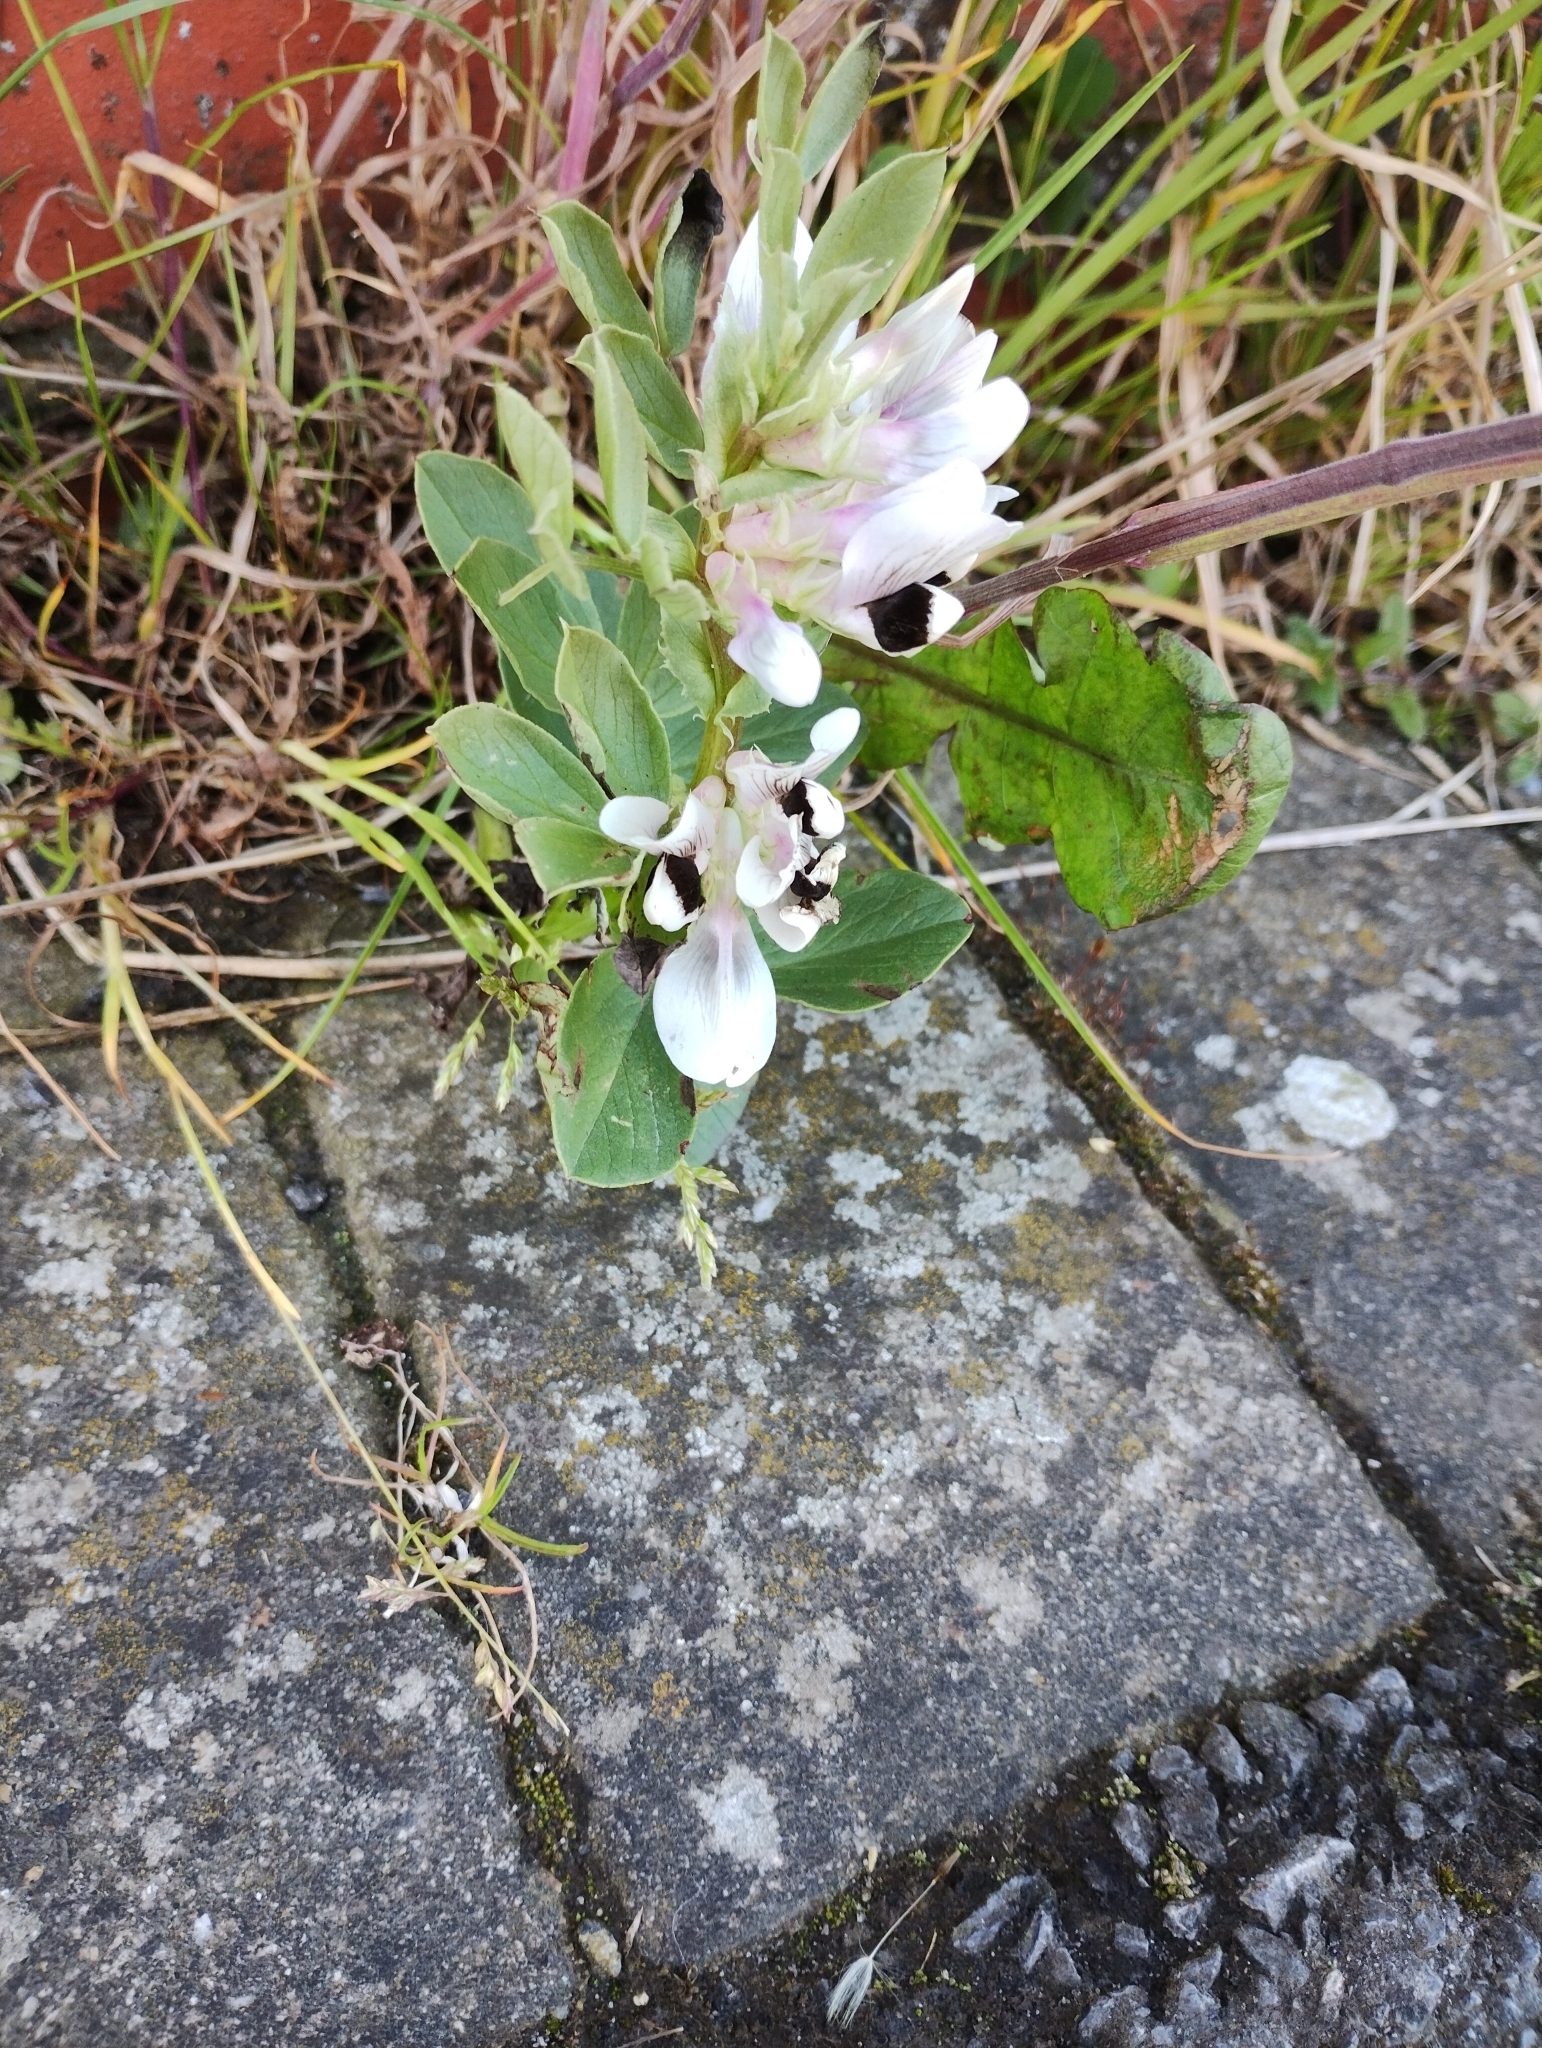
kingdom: Plantae
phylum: Tracheophyta
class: Magnoliopsida
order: Fabales
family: Fabaceae
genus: Vicia
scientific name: Vicia faba
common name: Broad bean
